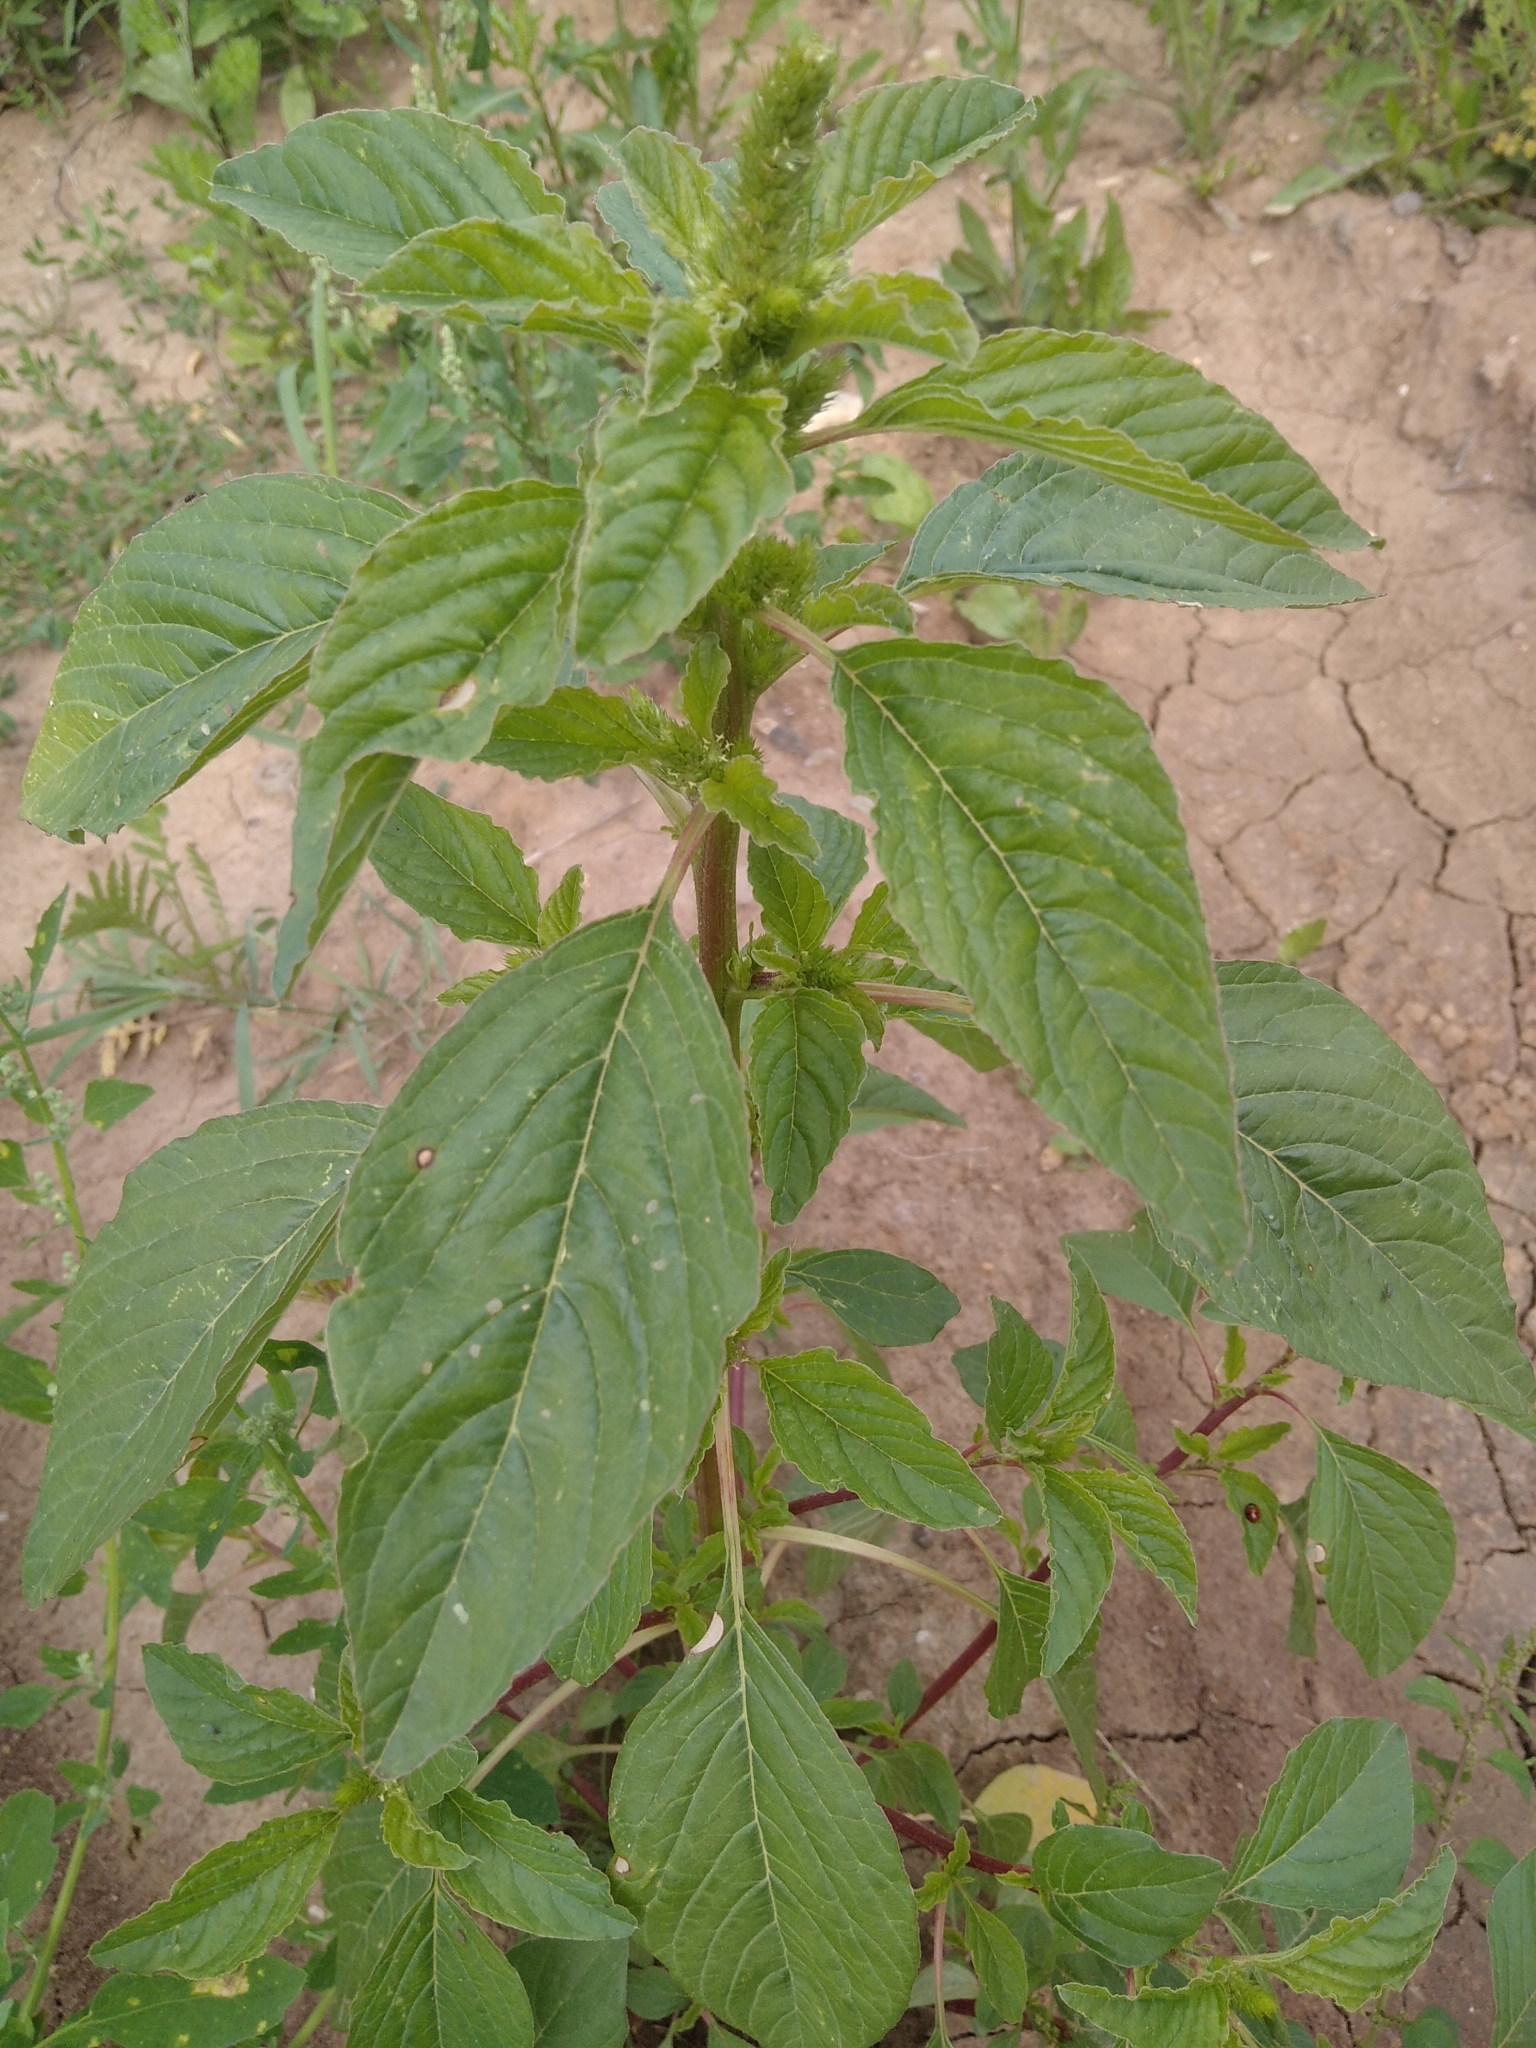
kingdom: Plantae
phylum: Tracheophyta
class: Magnoliopsida
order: Caryophyllales
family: Amaranthaceae
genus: Amaranthus
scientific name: Amaranthus retroflexus
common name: Redroot amaranth
